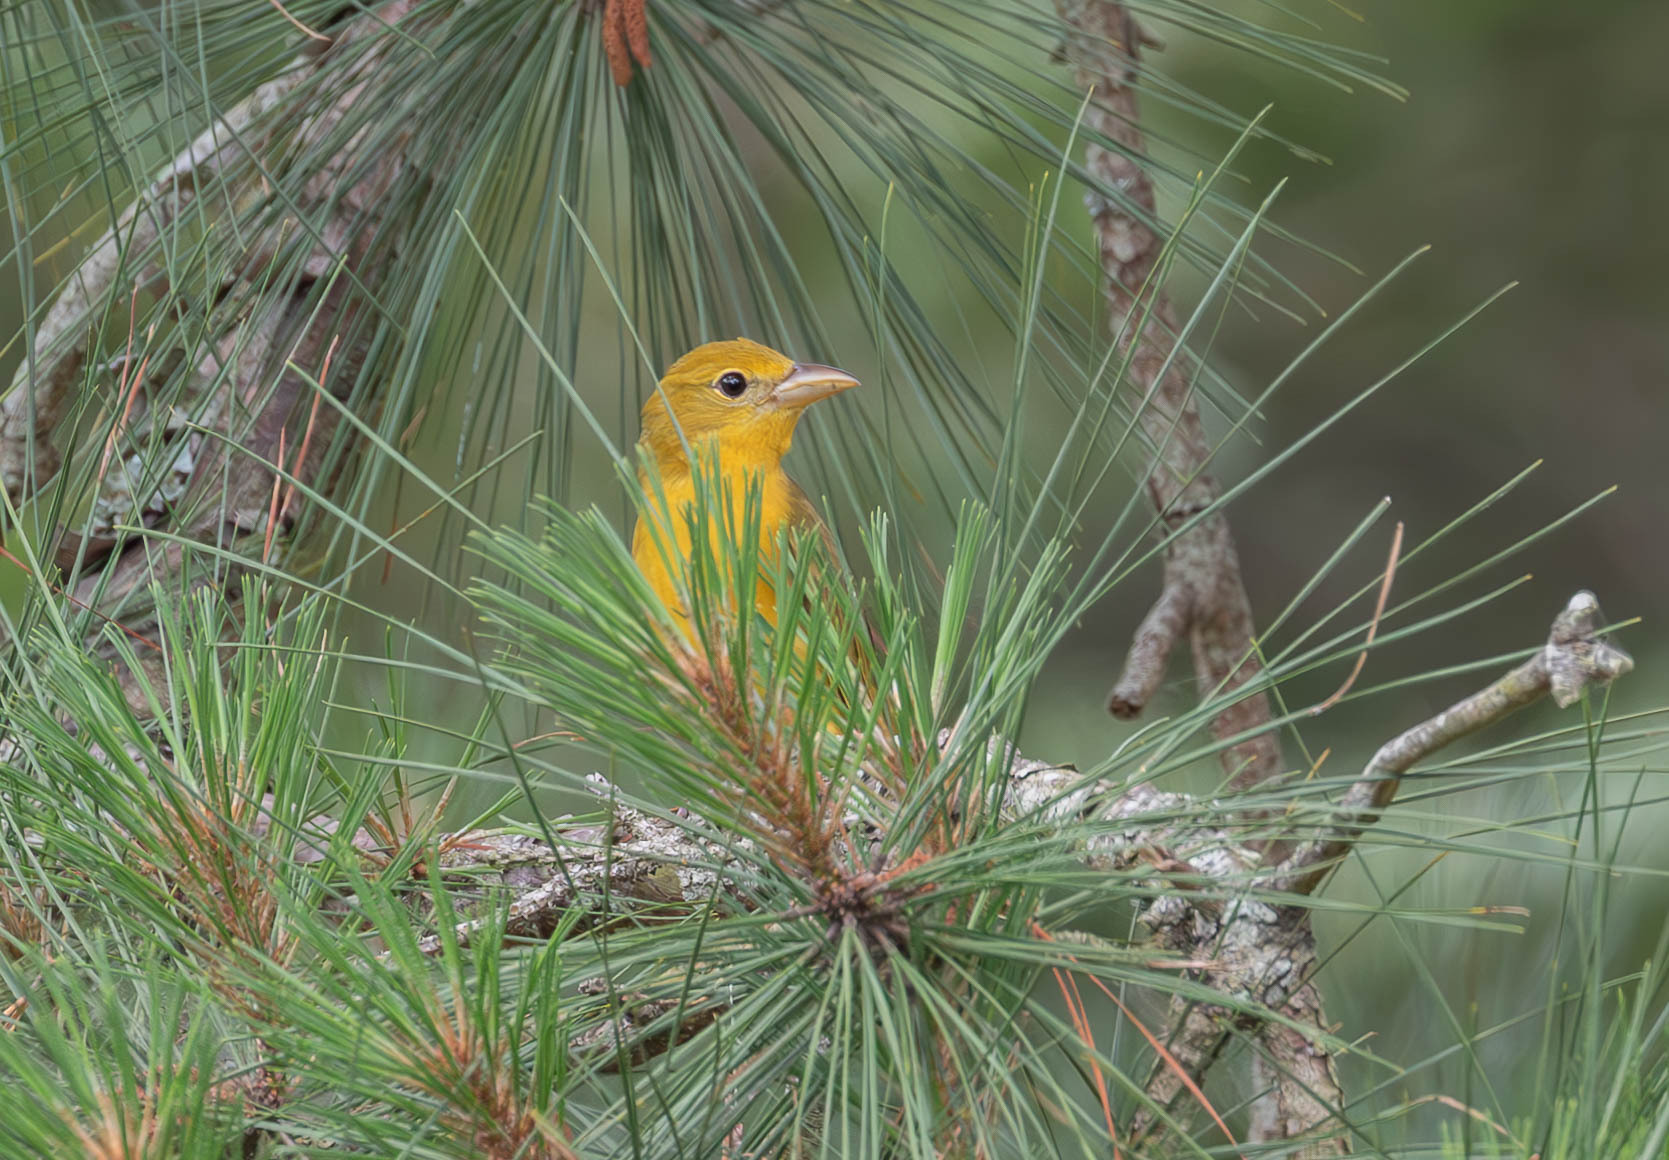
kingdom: Animalia
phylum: Chordata
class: Aves
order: Passeriformes
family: Cardinalidae
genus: Piranga
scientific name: Piranga rubra
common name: Summer tanager
